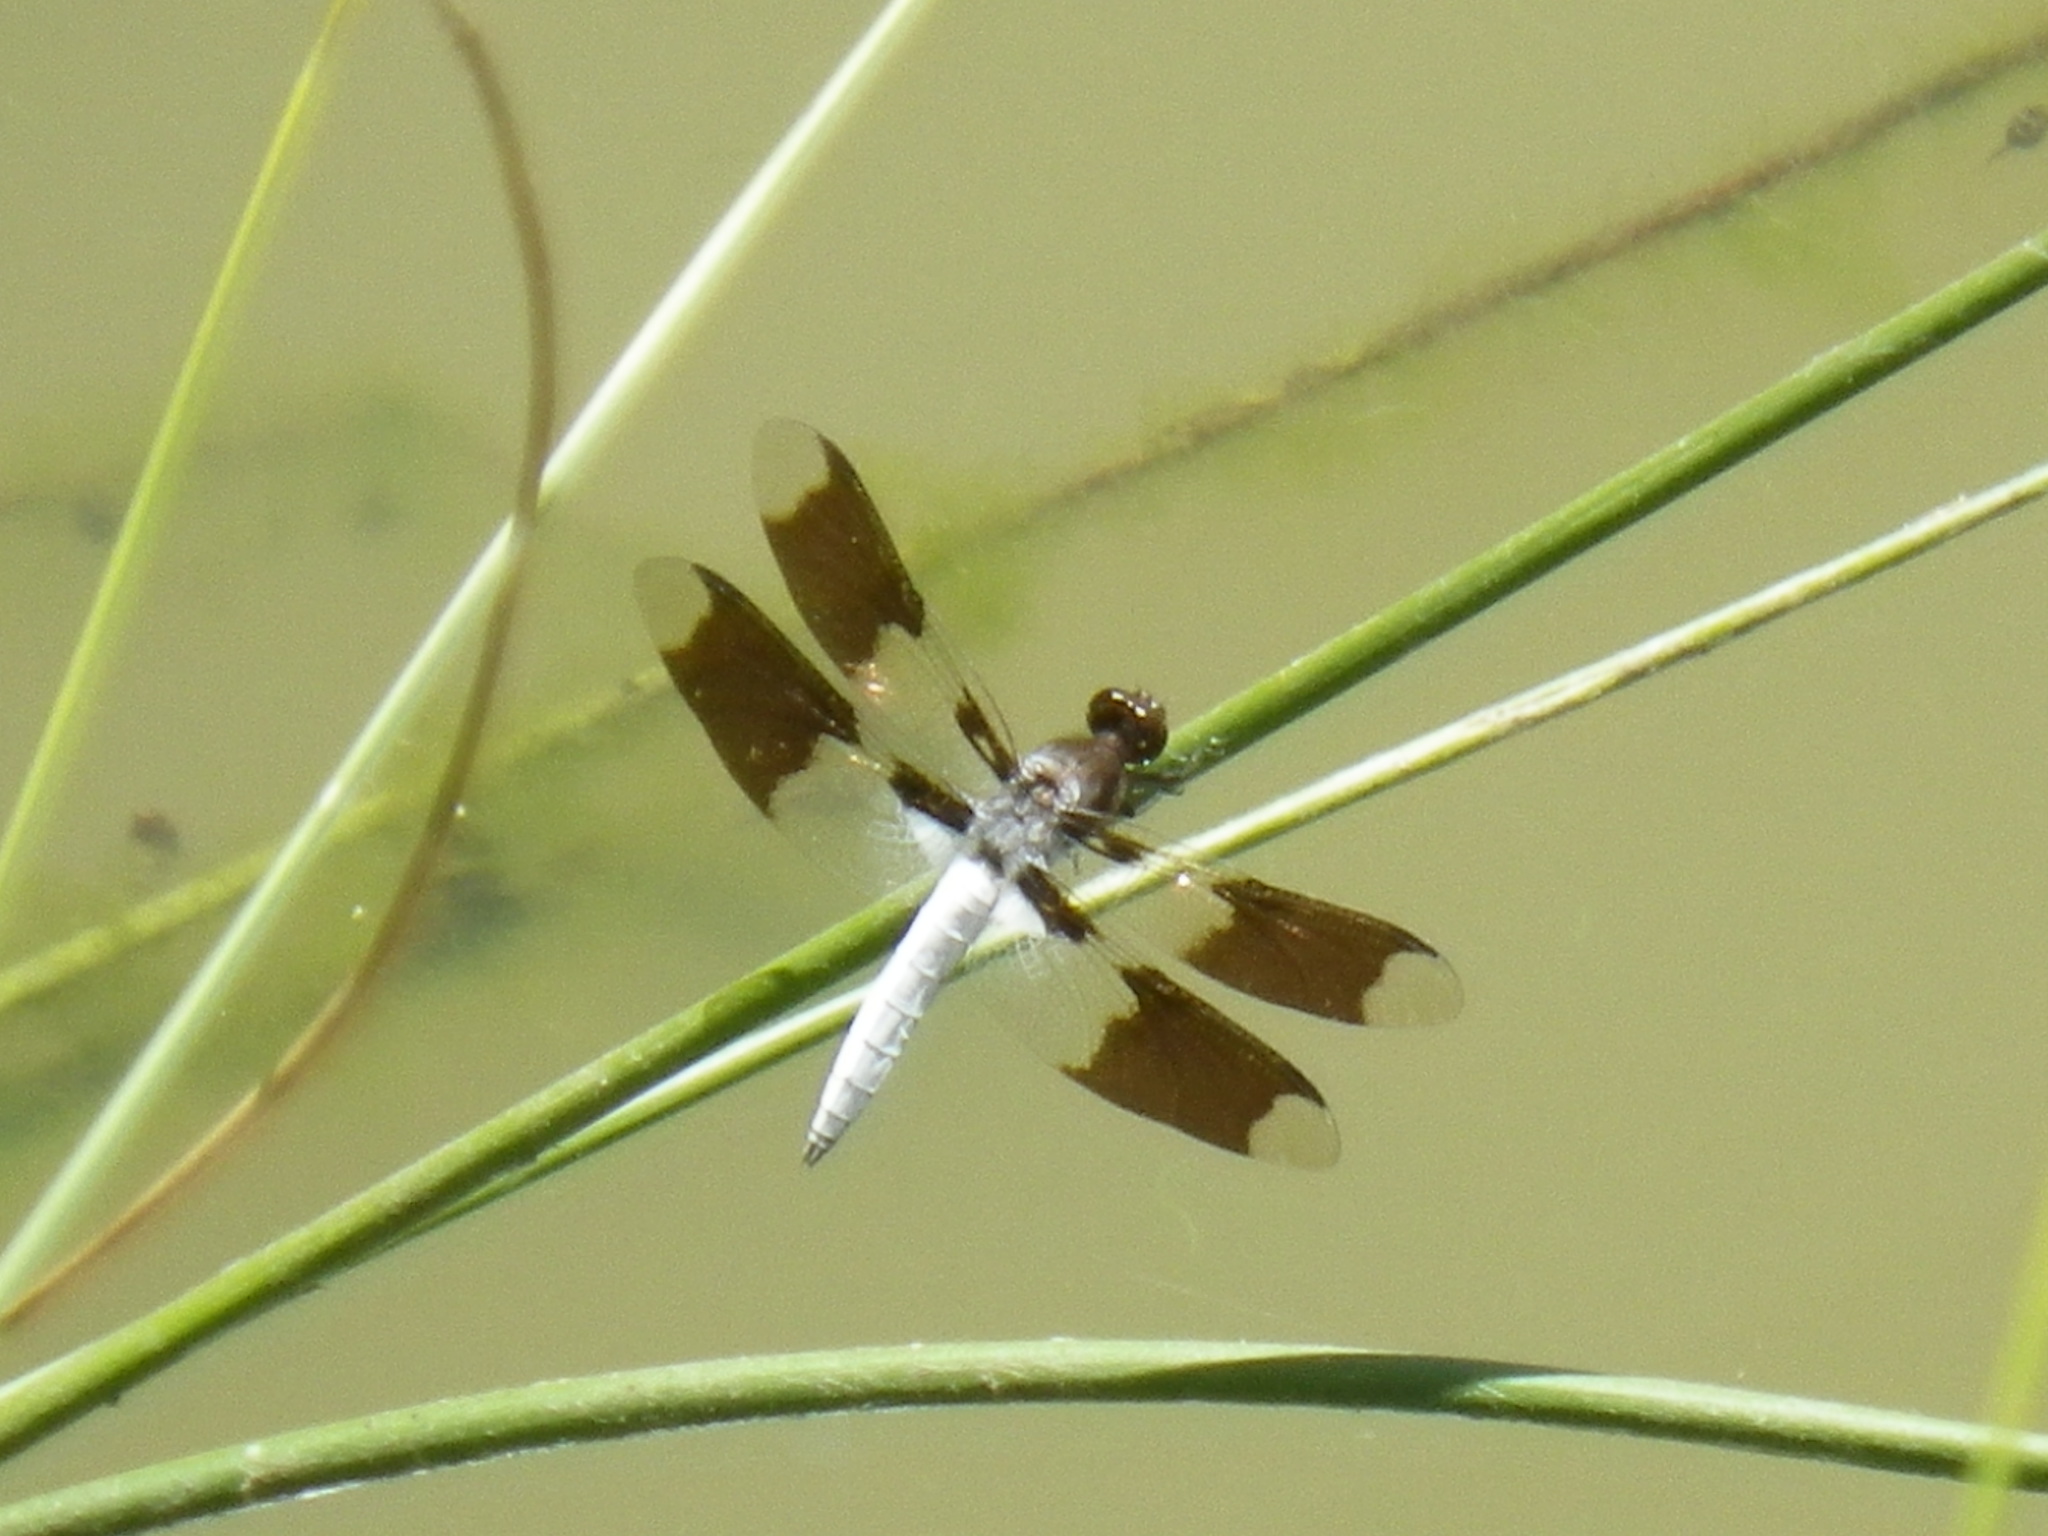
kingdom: Animalia
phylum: Arthropoda
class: Insecta
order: Odonata
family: Libellulidae
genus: Plathemis
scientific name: Plathemis lydia
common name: Common whitetail
